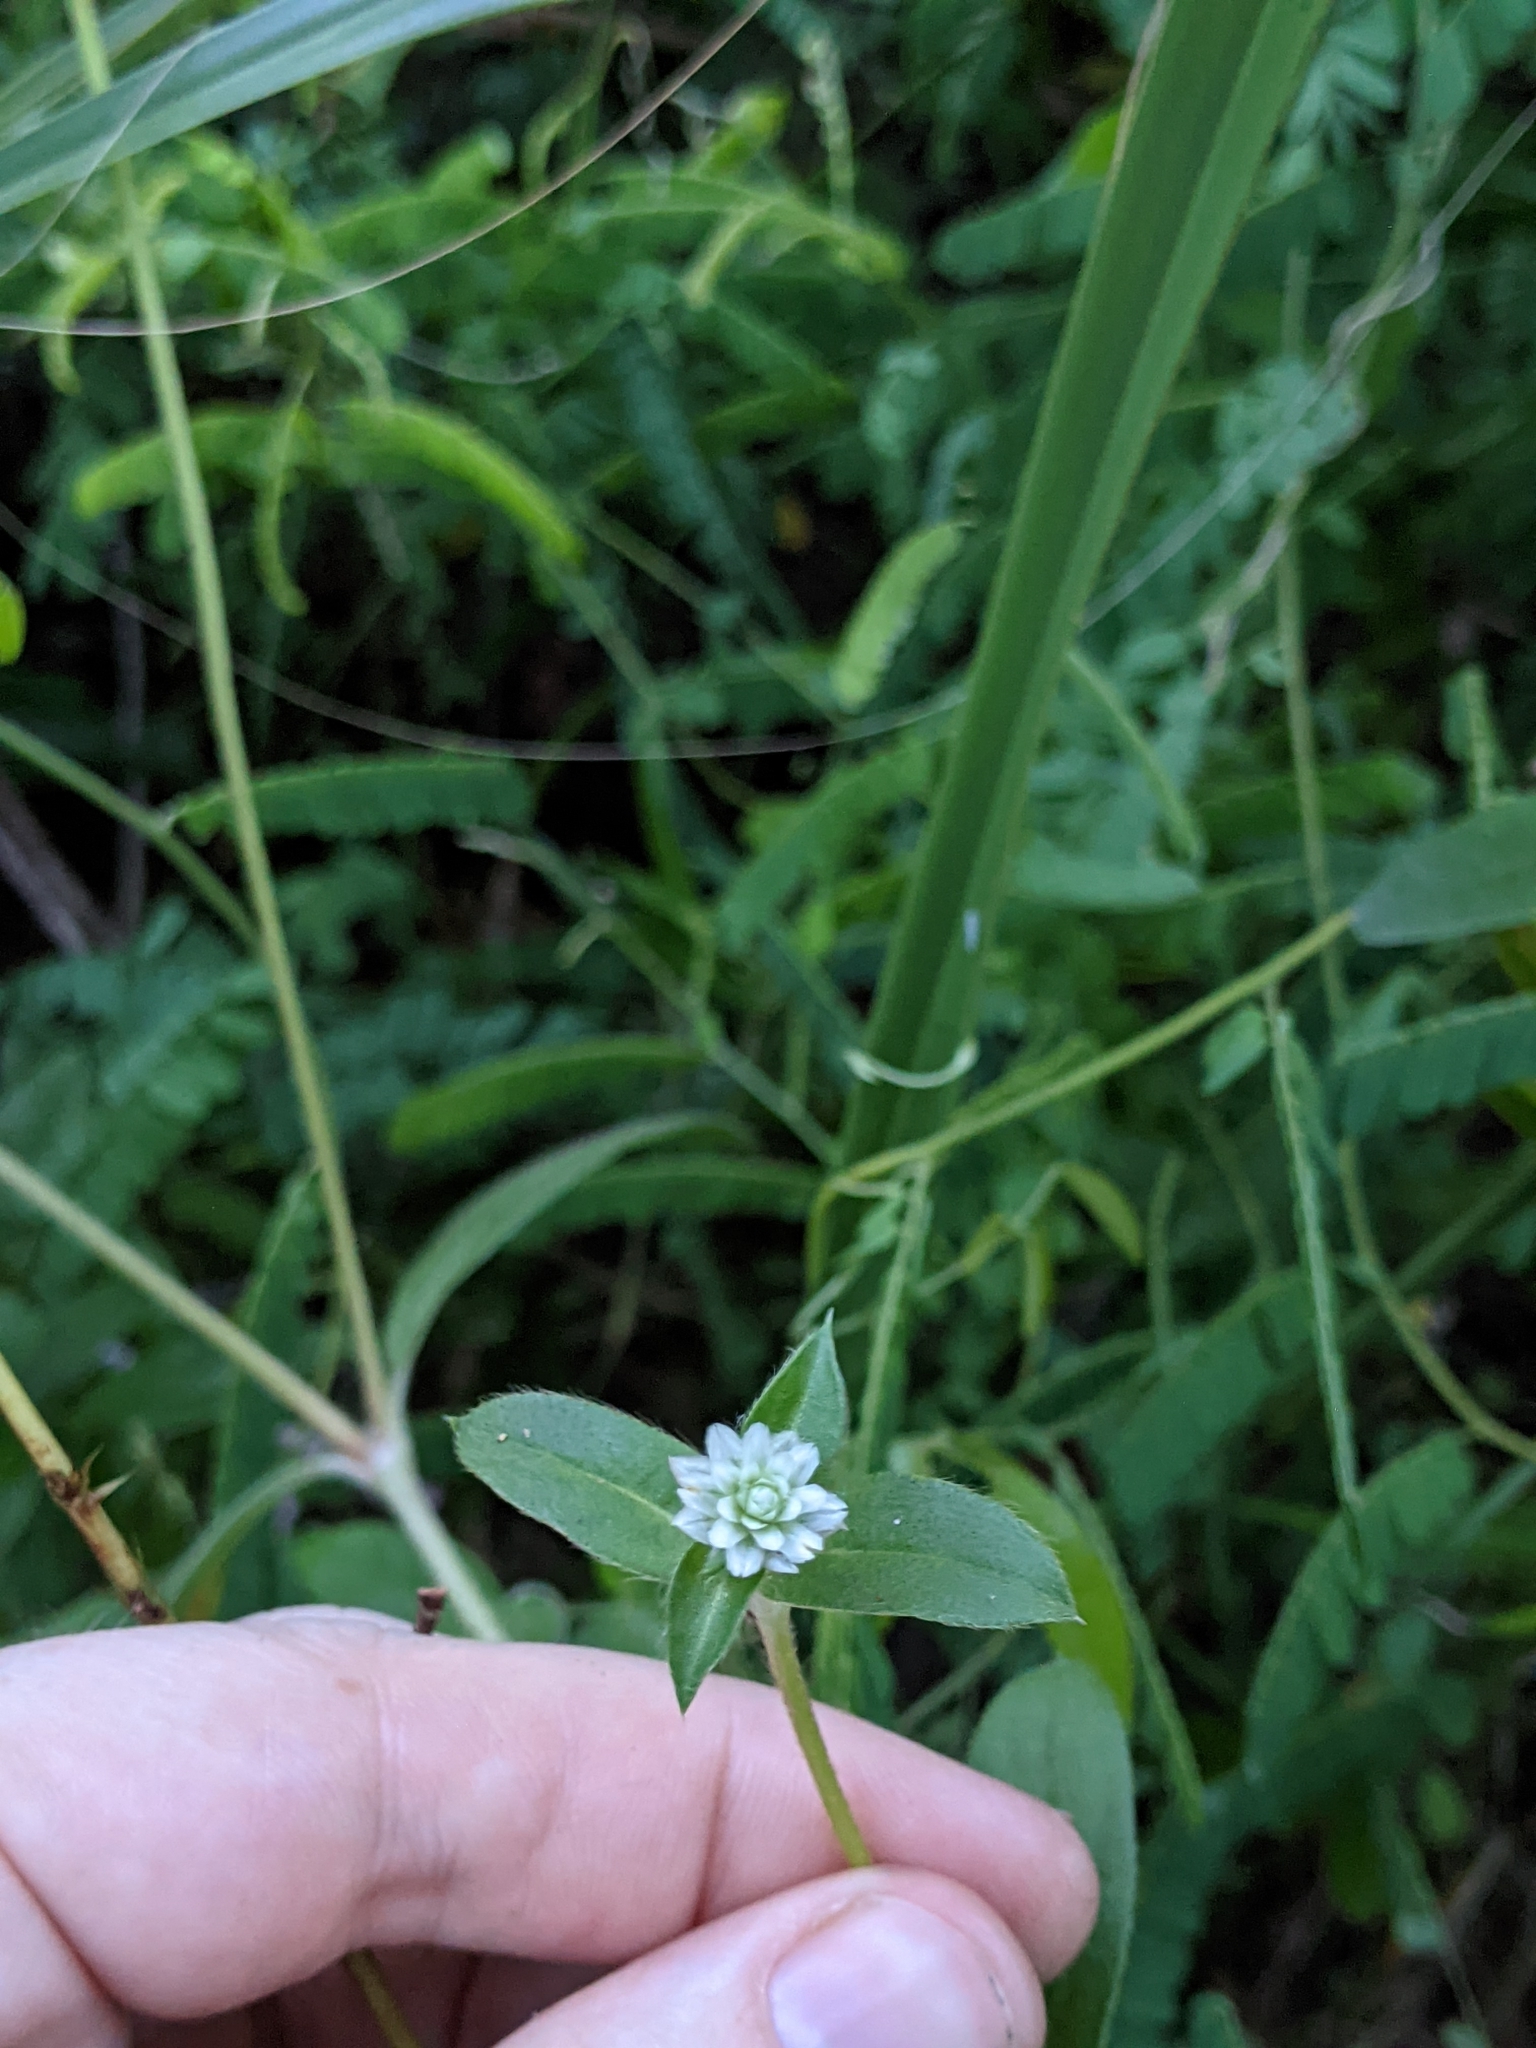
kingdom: Plantae
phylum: Tracheophyta
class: Magnoliopsida
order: Caryophyllales
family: Amaranthaceae
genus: Gomphrena
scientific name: Gomphrena serrata
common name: Arrasa con todo
